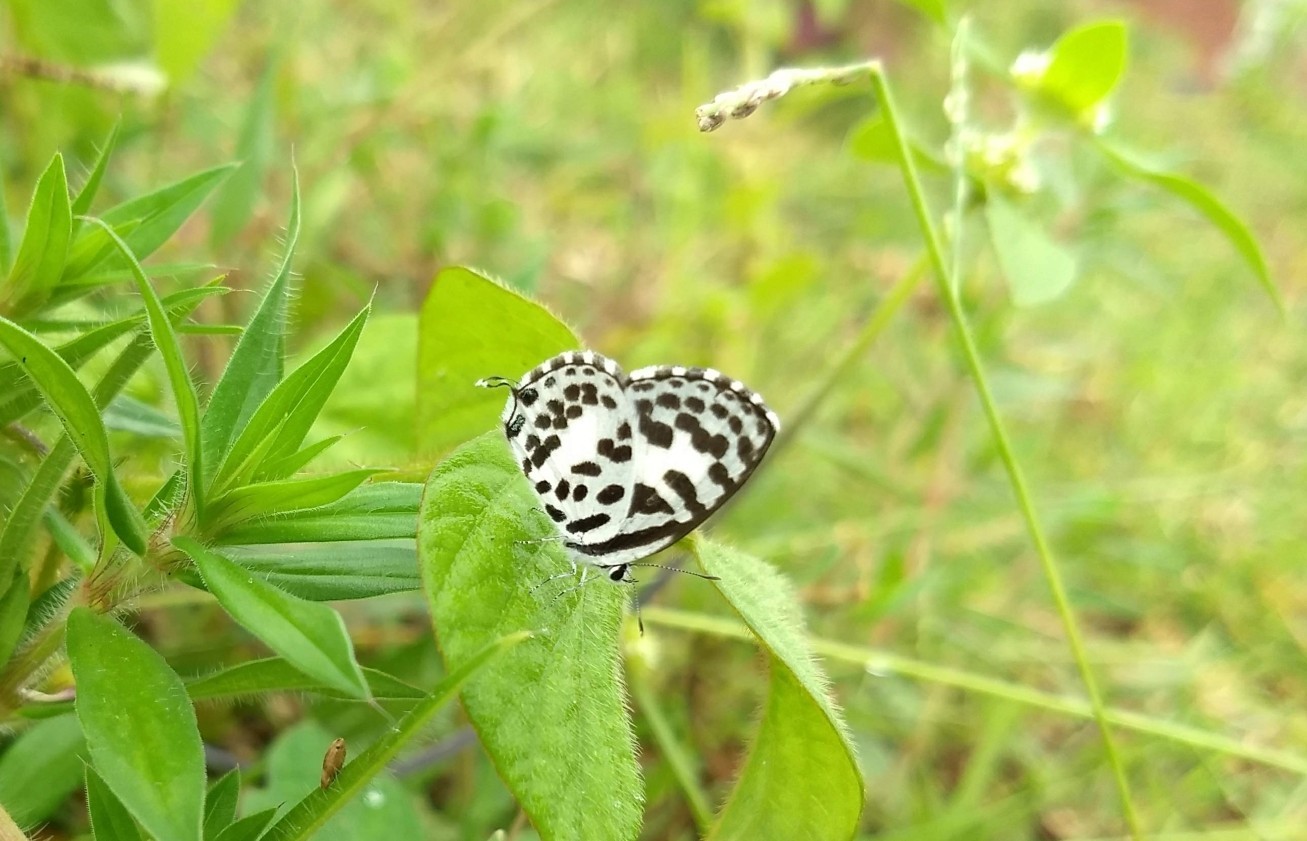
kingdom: Animalia
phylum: Arthropoda
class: Insecta
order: Lepidoptera
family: Lycaenidae
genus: Castalius
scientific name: Castalius rosimon
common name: Common pierrot
